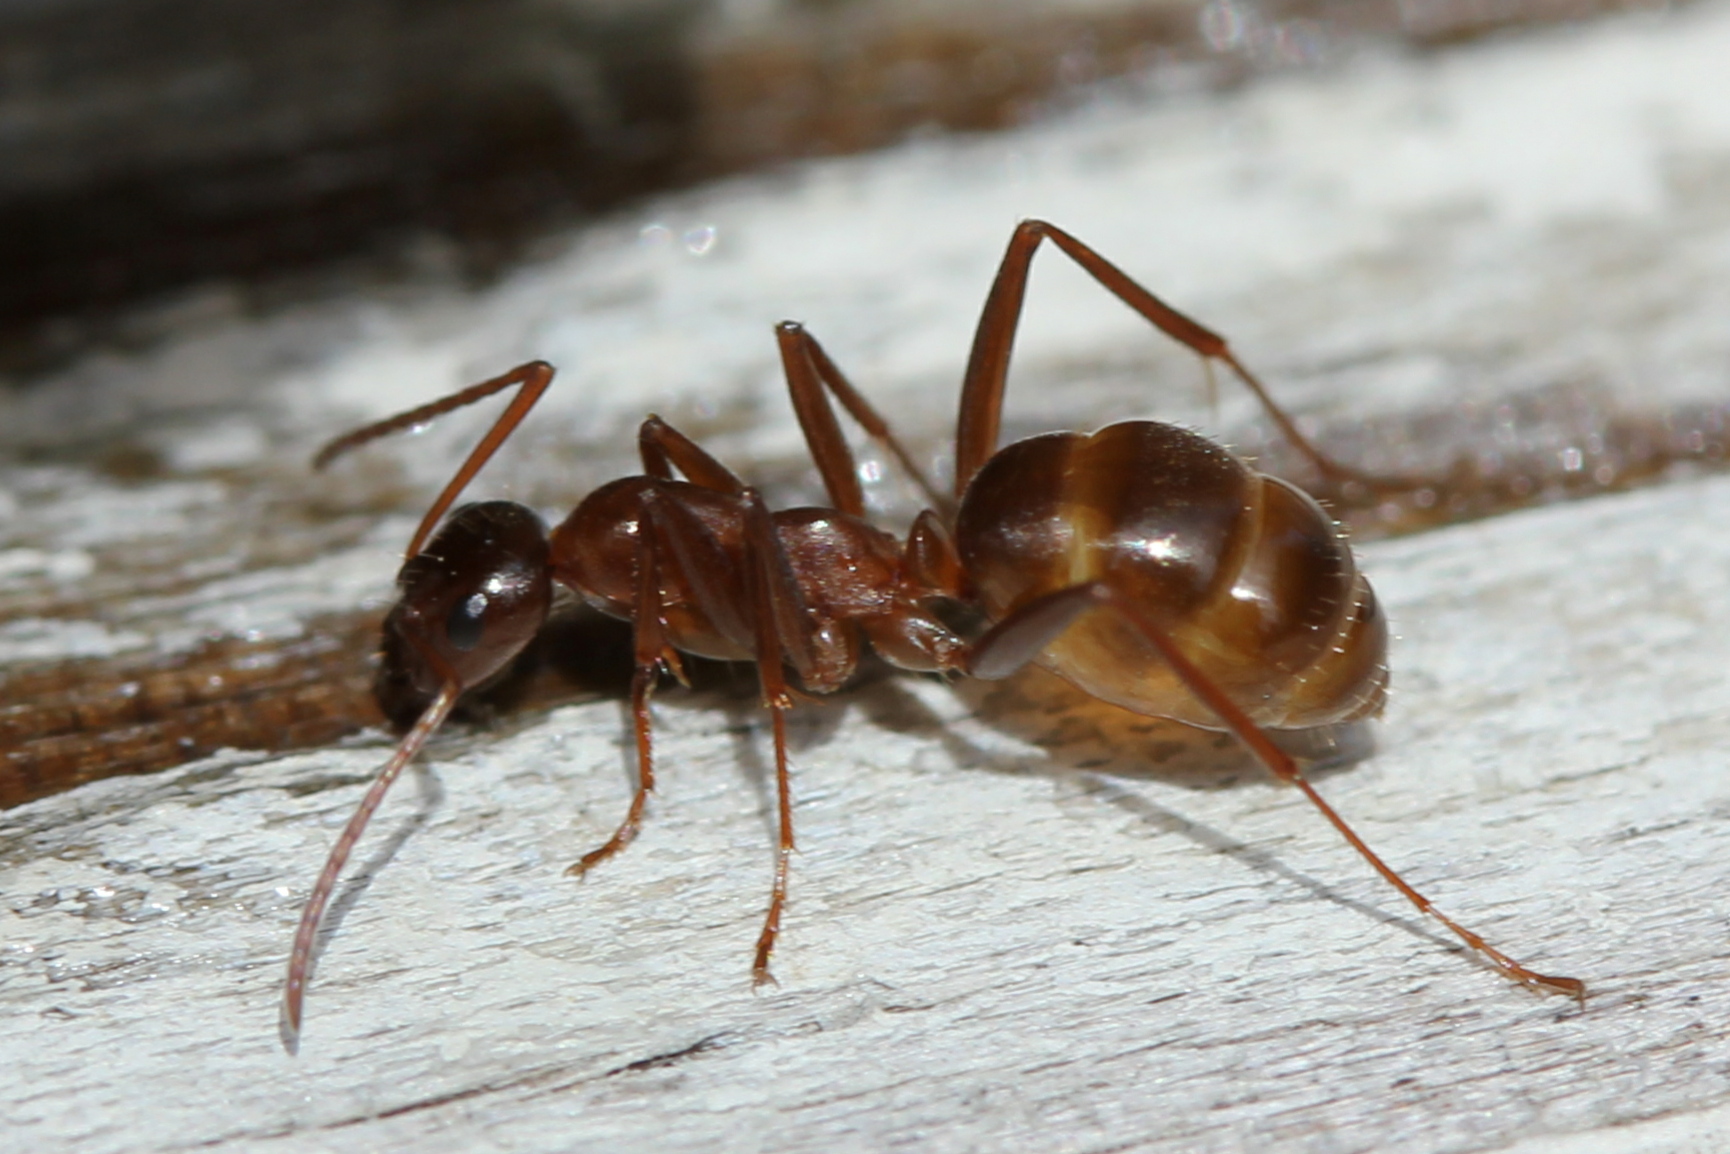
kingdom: Animalia
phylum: Arthropoda
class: Insecta
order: Hymenoptera
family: Formicidae
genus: Formica
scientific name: Formica pallidefulva
